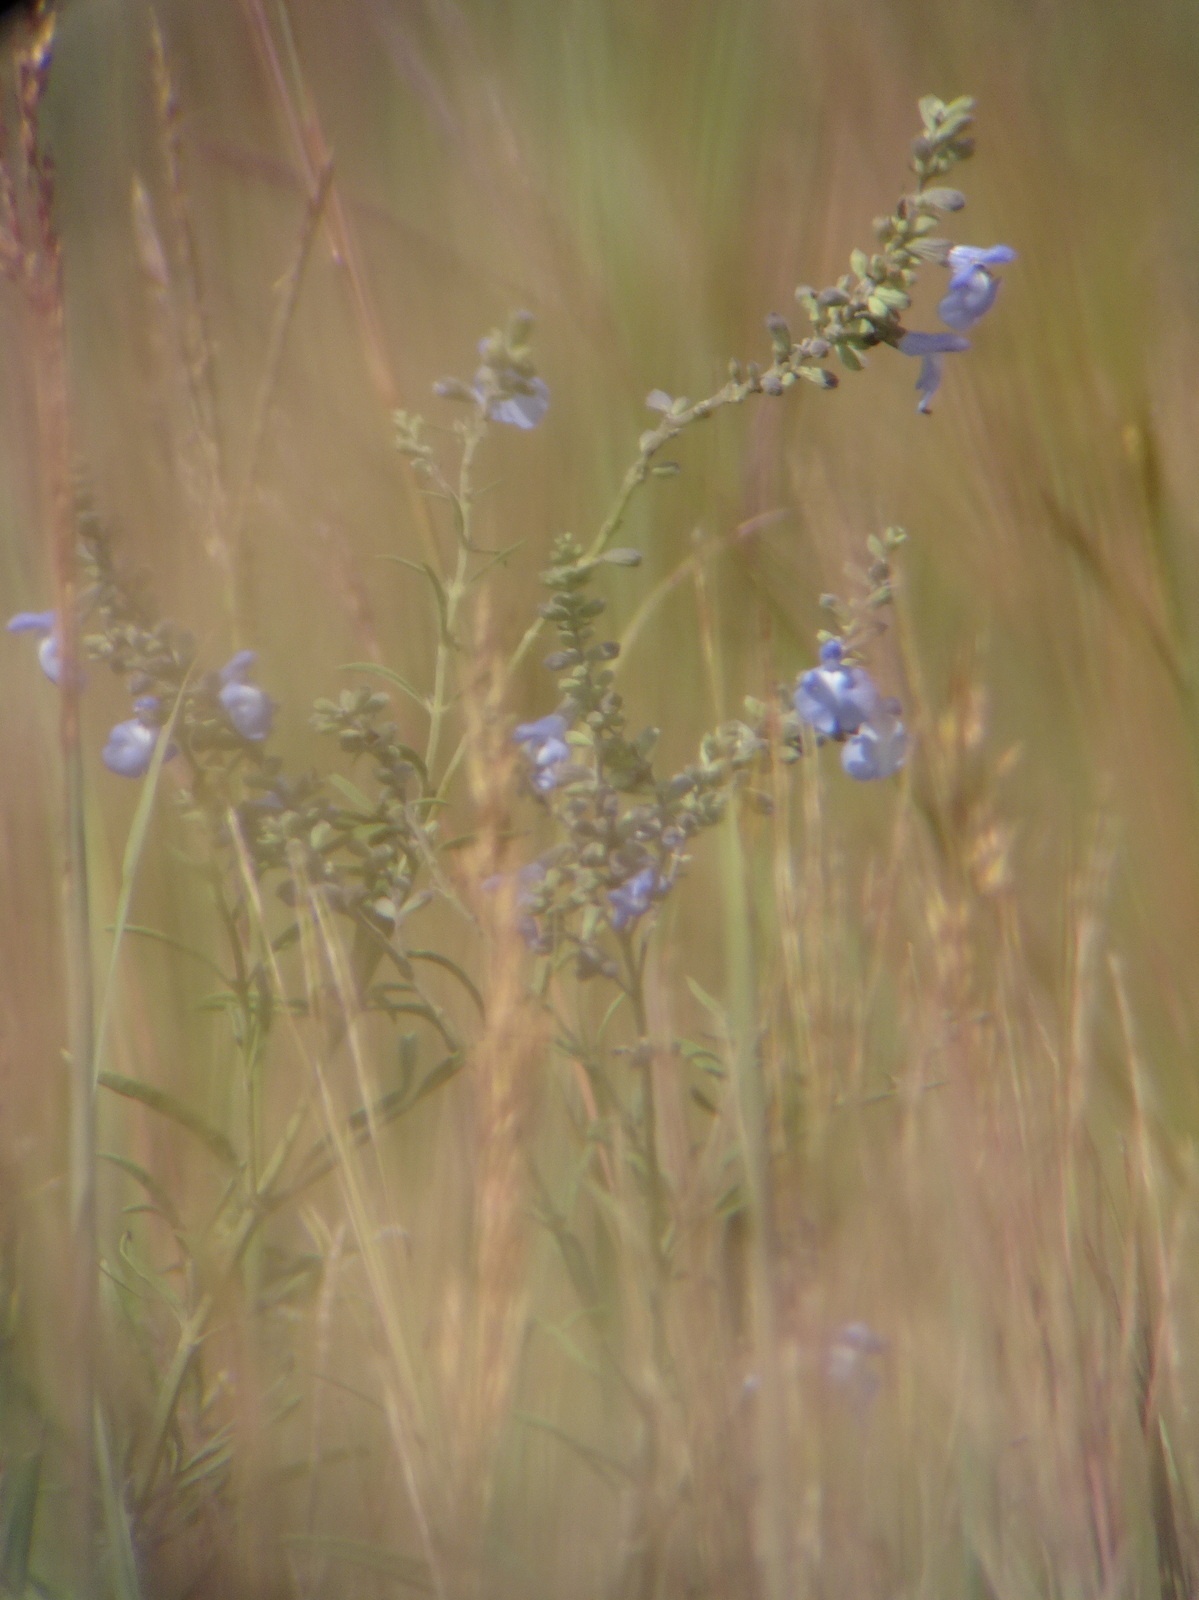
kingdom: Plantae
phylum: Tracheophyta
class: Magnoliopsida
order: Lamiales
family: Lamiaceae
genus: Salvia
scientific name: Salvia azurea
